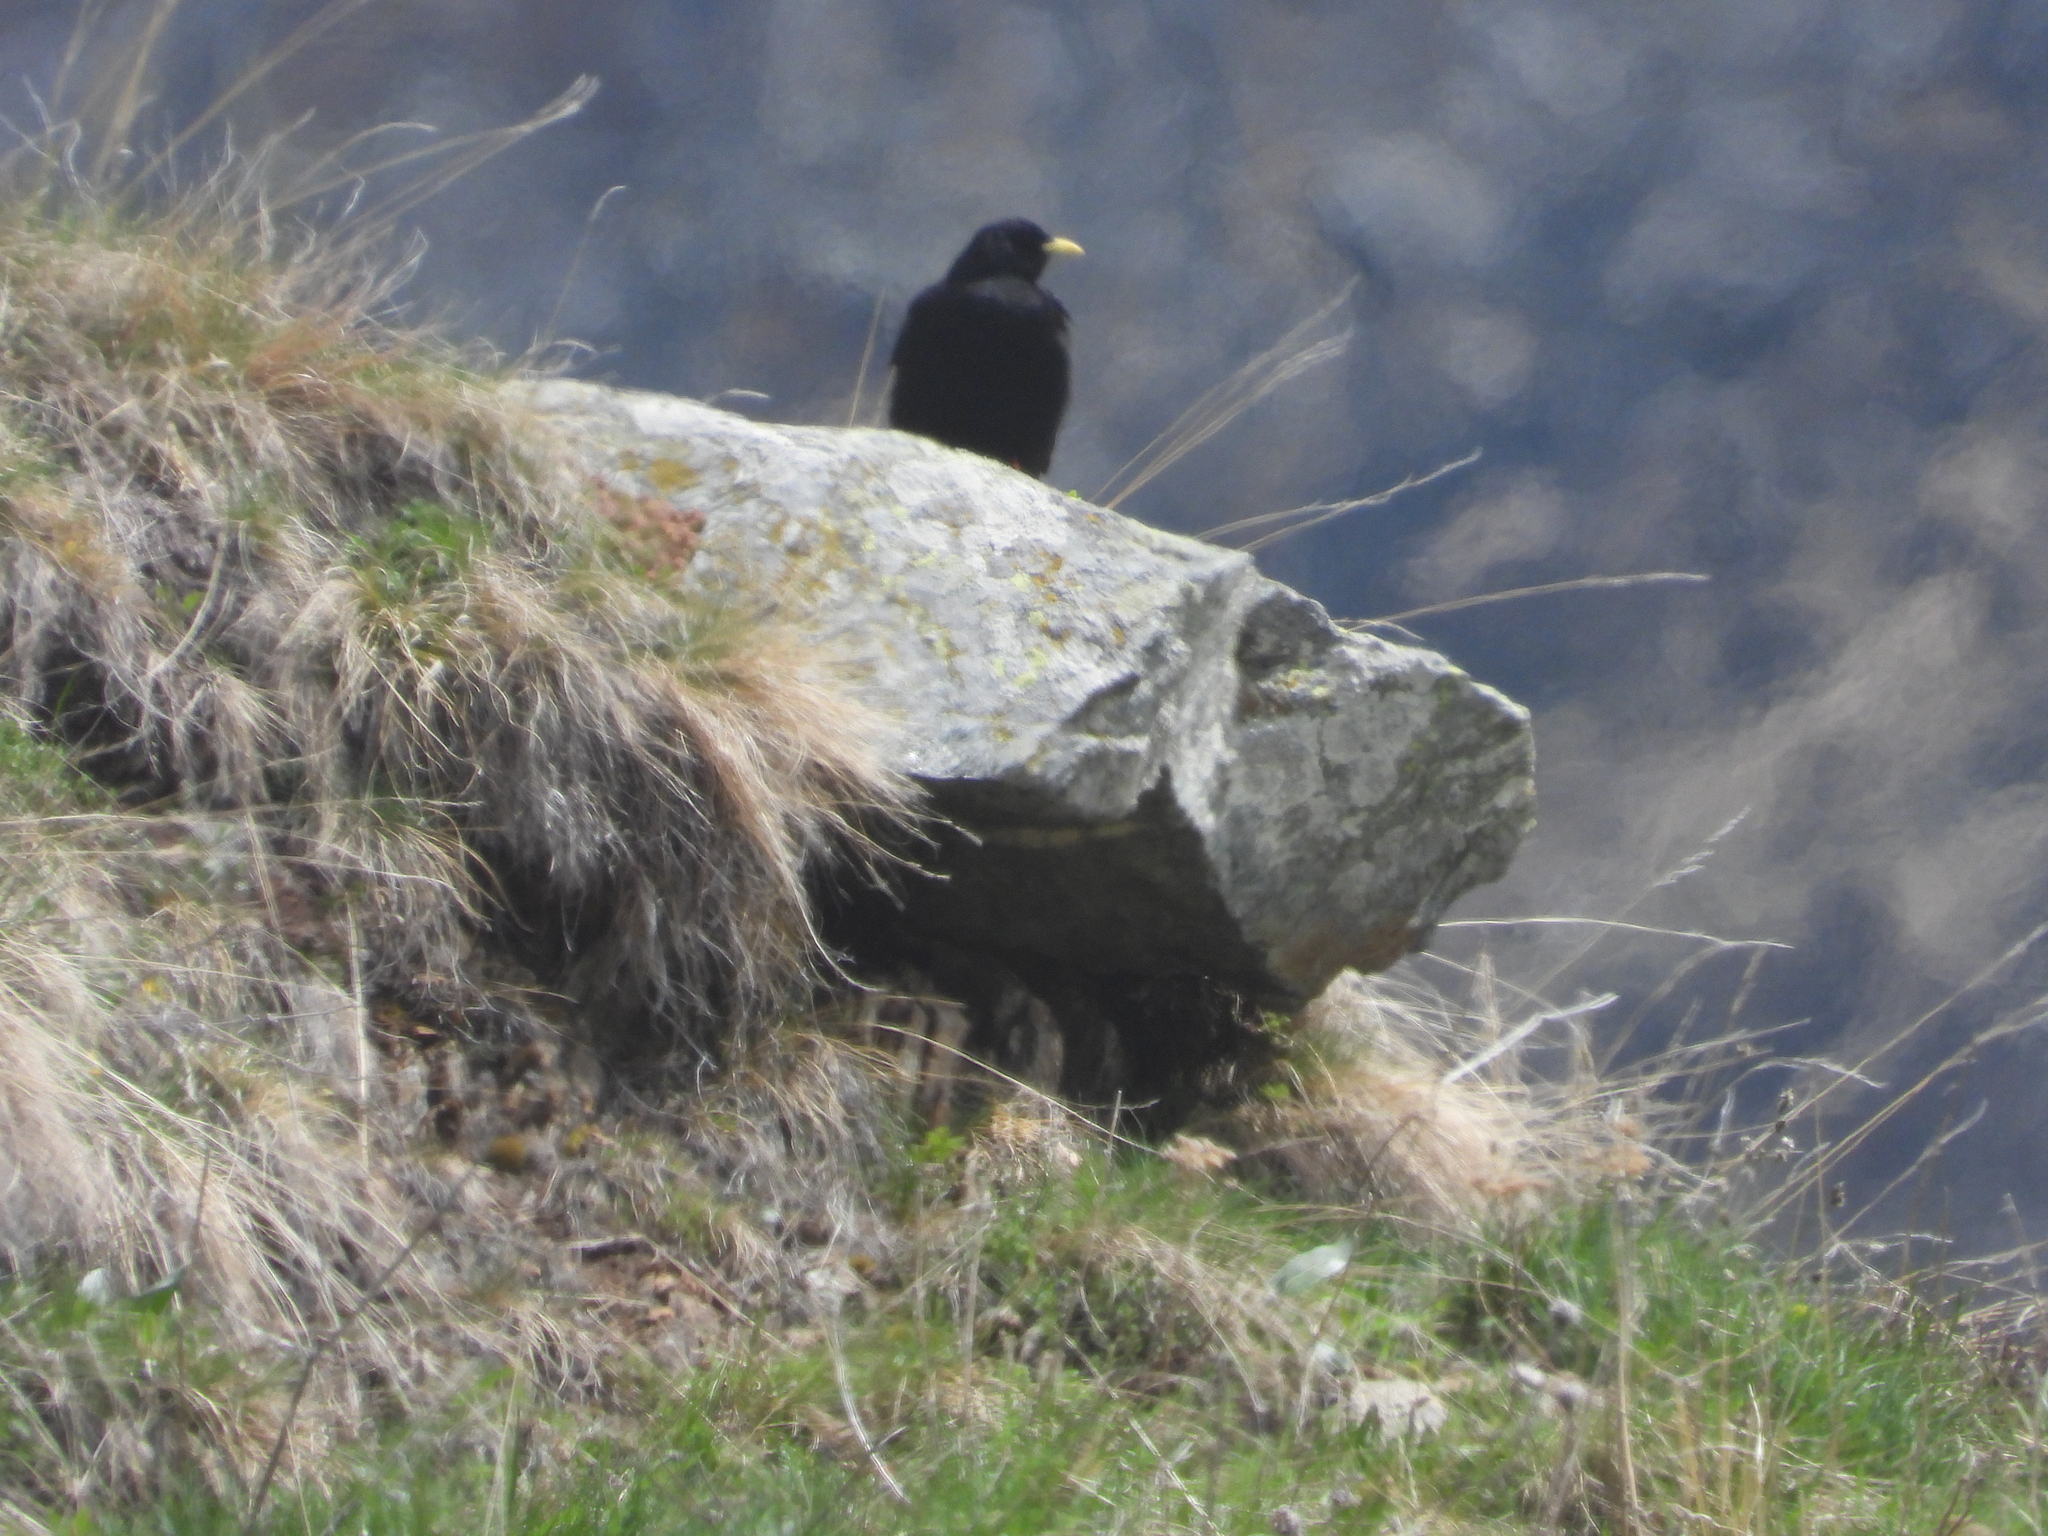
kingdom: Animalia
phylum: Chordata
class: Aves
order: Passeriformes
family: Corvidae
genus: Pyrrhocorax
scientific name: Pyrrhocorax graculus
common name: Alpine chough
